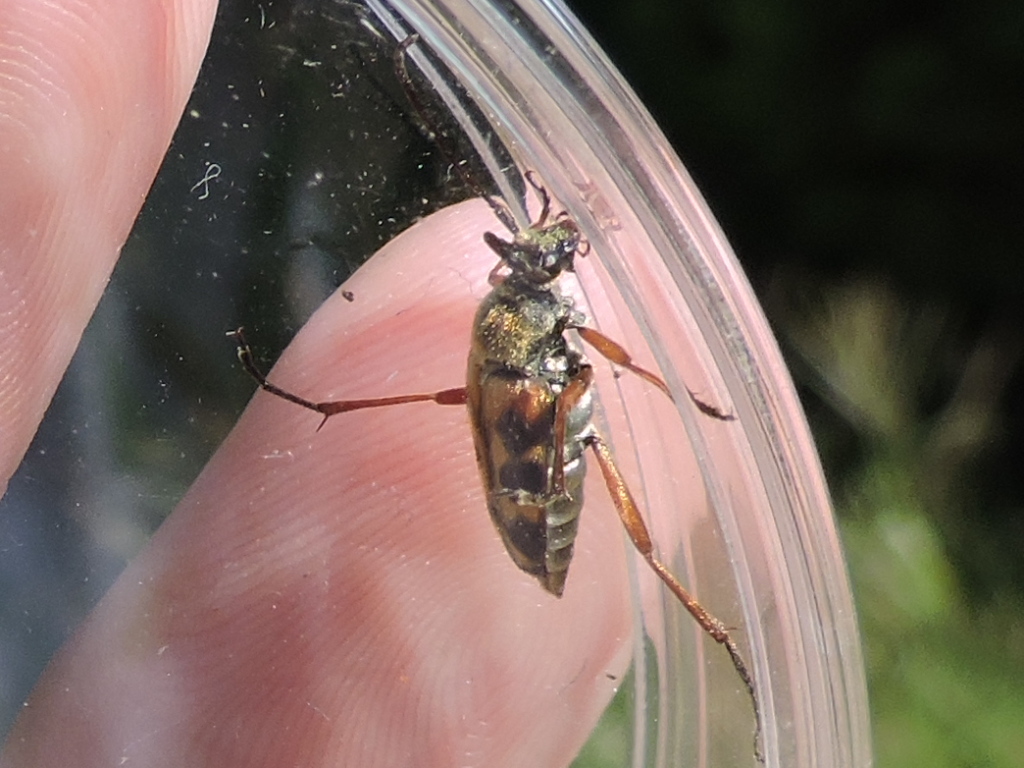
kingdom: Animalia
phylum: Arthropoda
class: Insecta
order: Coleoptera
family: Cerambycidae
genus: Typocerus
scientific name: Typocerus sinuatus
